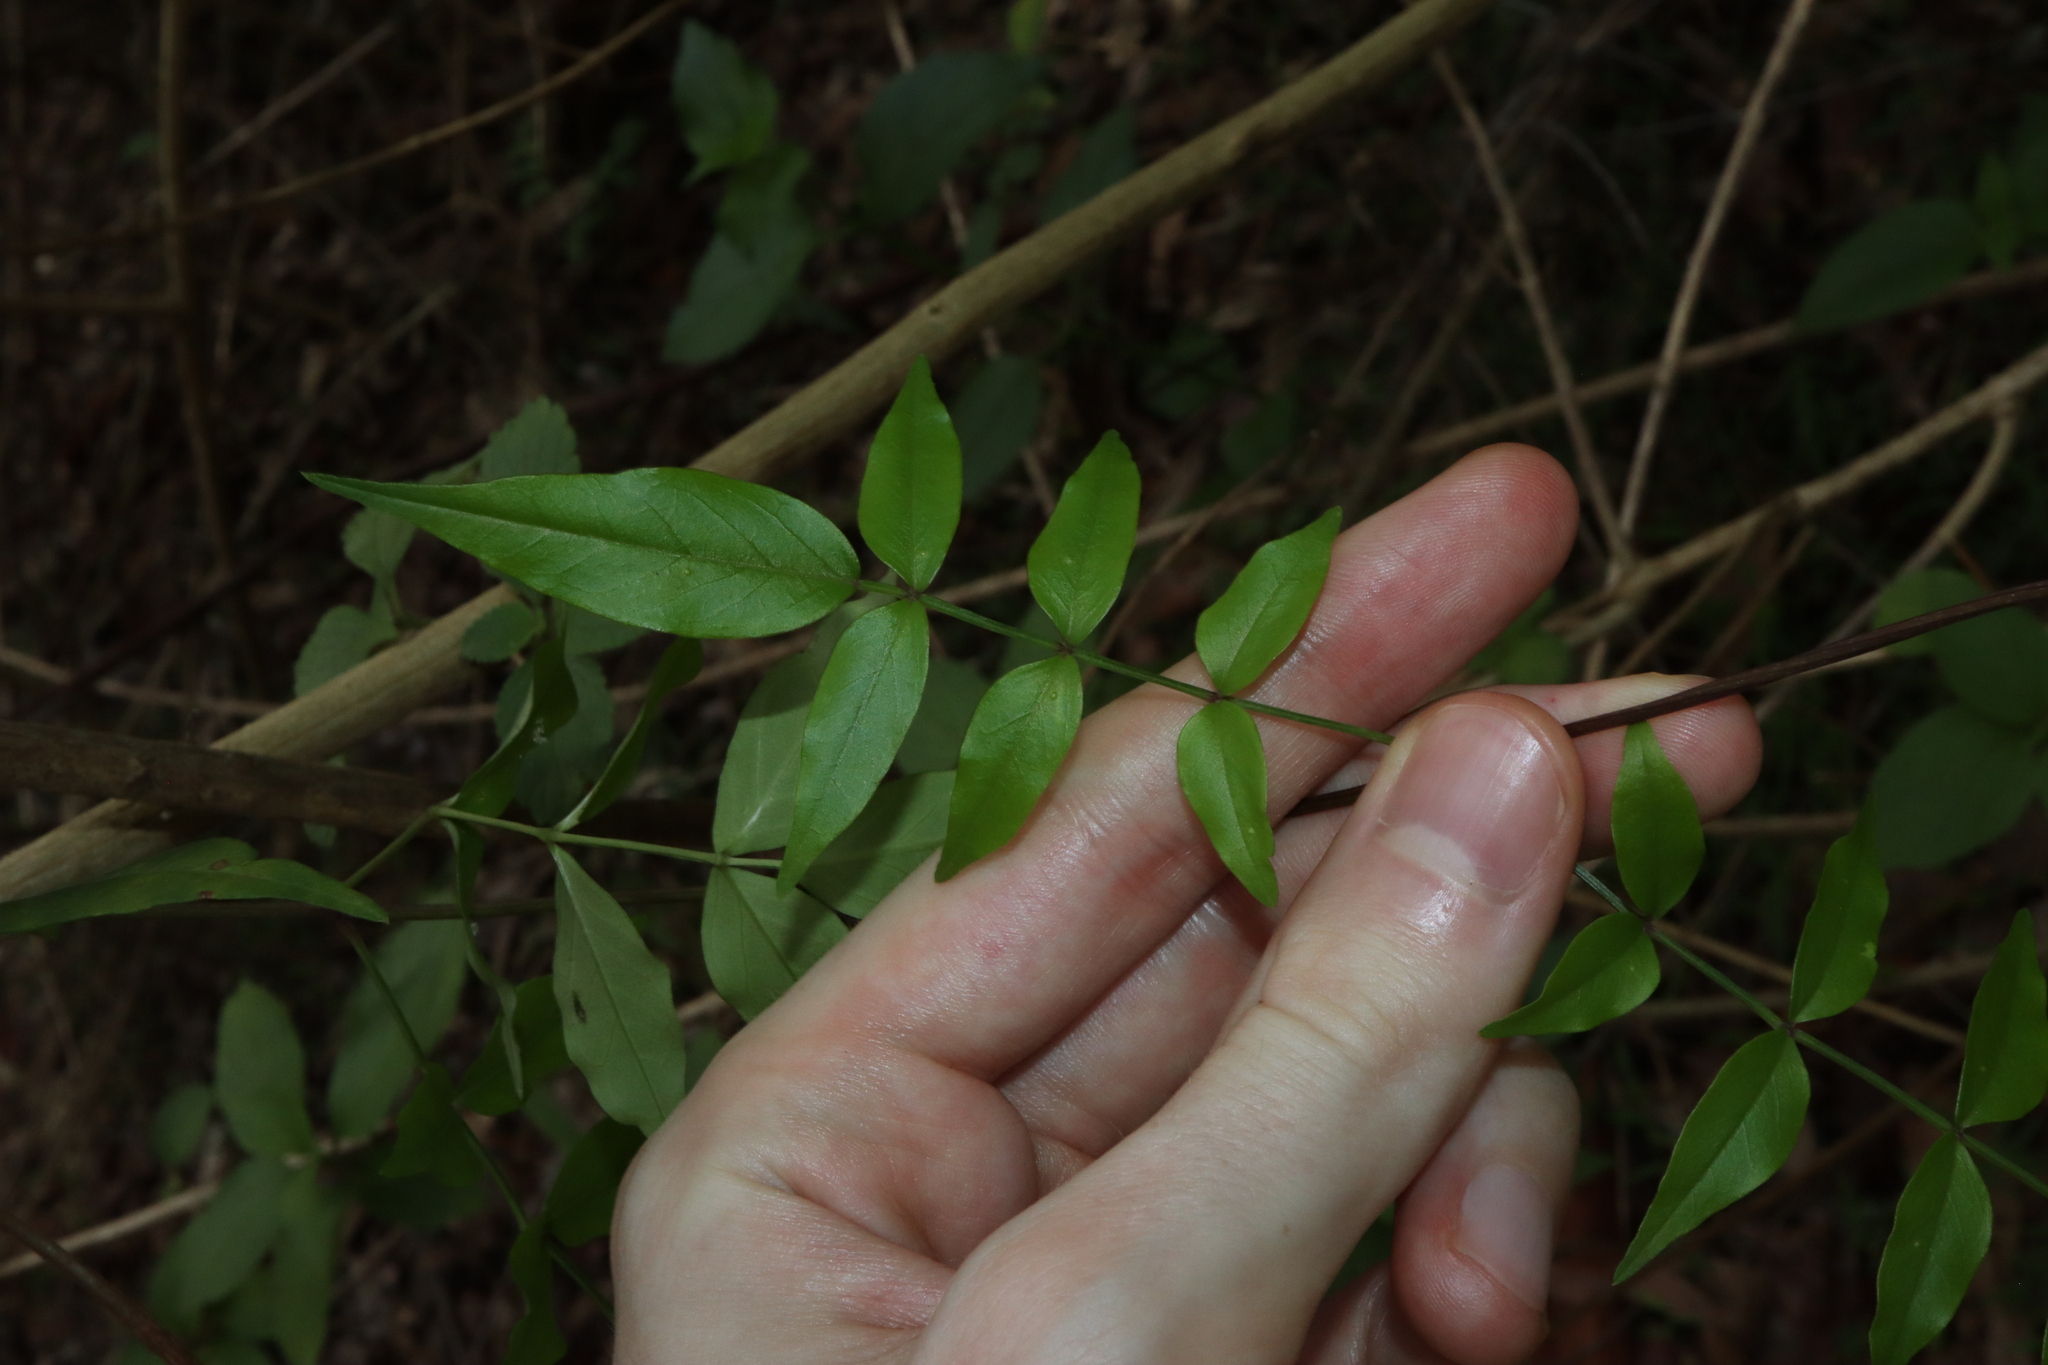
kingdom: Plantae
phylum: Tracheophyta
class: Magnoliopsida
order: Lamiales
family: Bignoniaceae
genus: Pandorea
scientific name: Pandorea pandorana
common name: Wonga-wonga-vine
